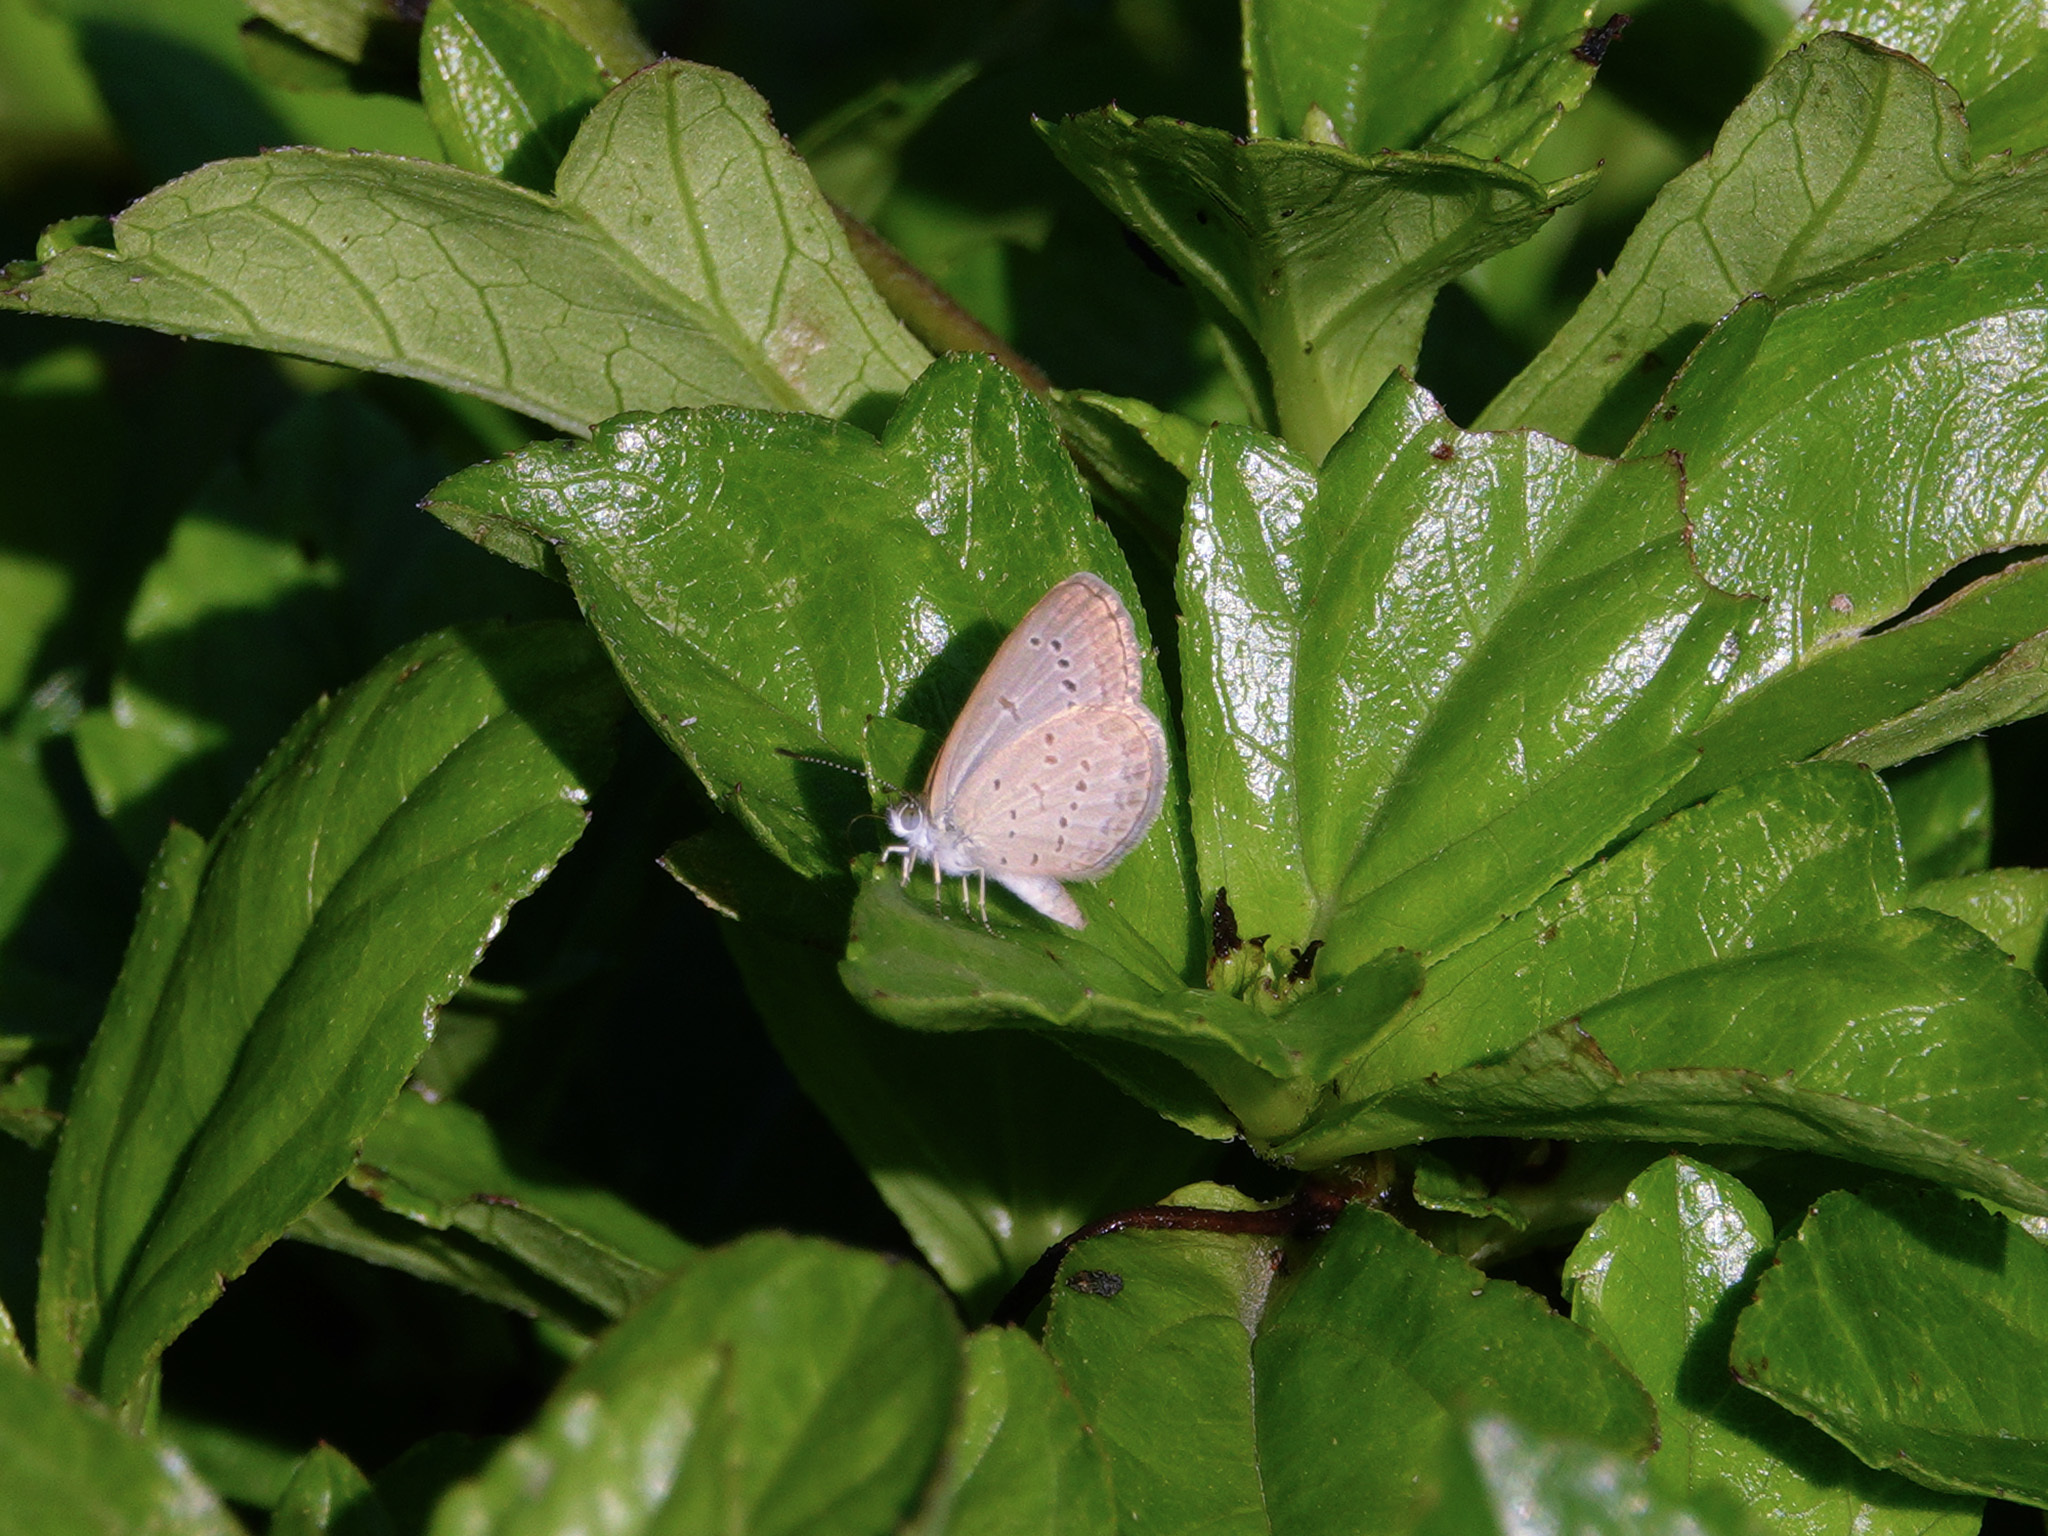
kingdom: Animalia
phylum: Arthropoda
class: Insecta
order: Lepidoptera
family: Lycaenidae
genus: Zizina
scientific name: Zizina otis
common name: Lesser grass blue
